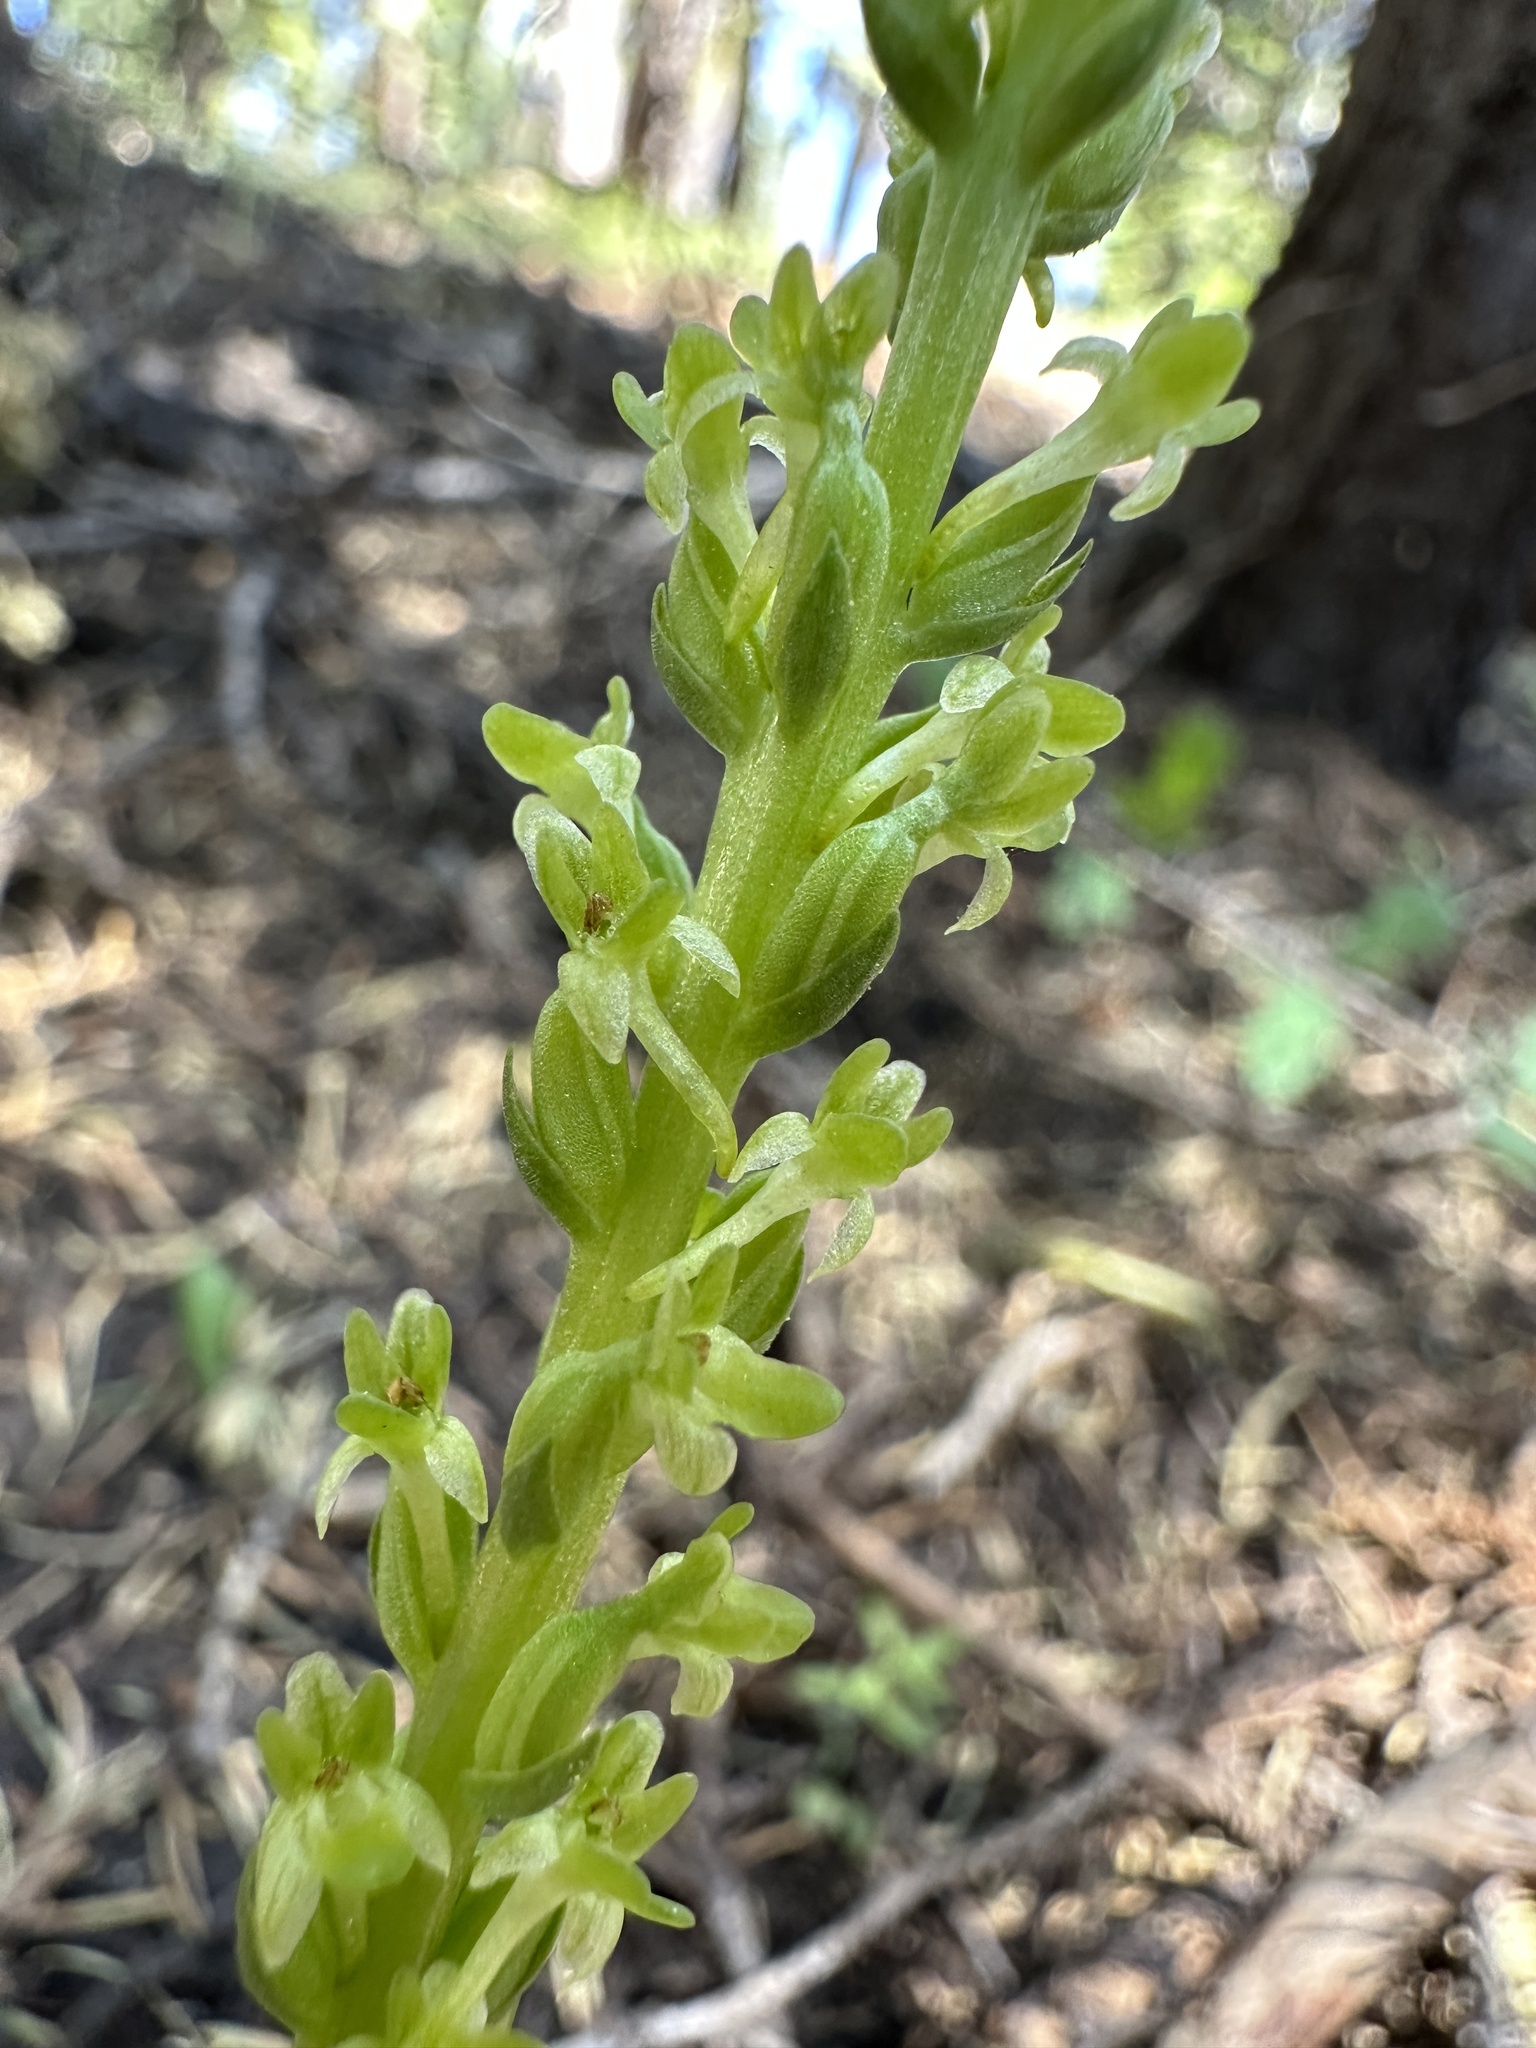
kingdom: Plantae
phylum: Tracheophyta
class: Liliopsida
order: Asparagales
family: Orchidaceae
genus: Platanthera
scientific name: Platanthera unalascensis
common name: Alaska bog orchid
